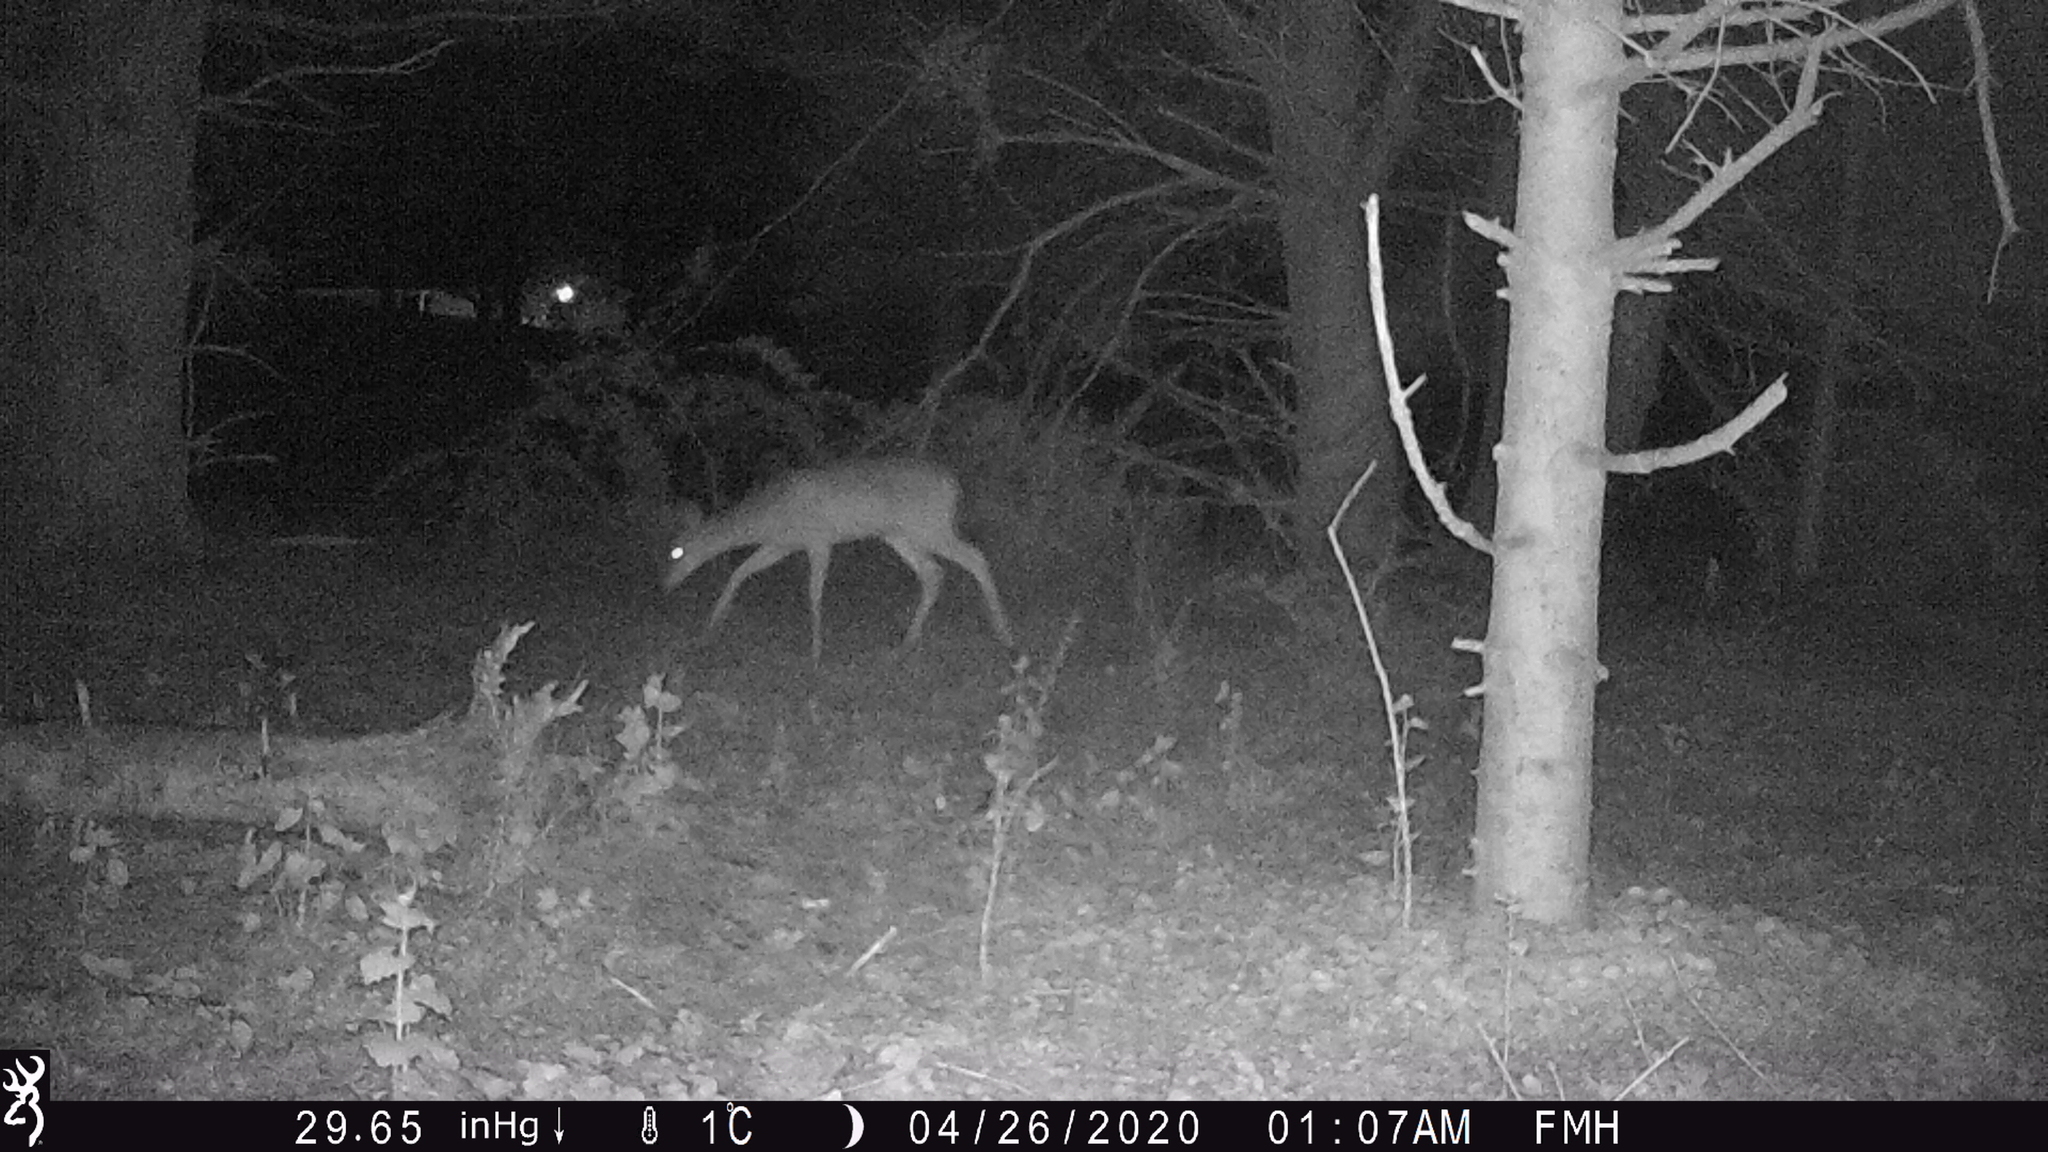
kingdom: Animalia
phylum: Chordata
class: Mammalia
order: Artiodactyla
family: Cervidae
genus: Odocoileus
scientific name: Odocoileus virginianus
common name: White-tailed deer
